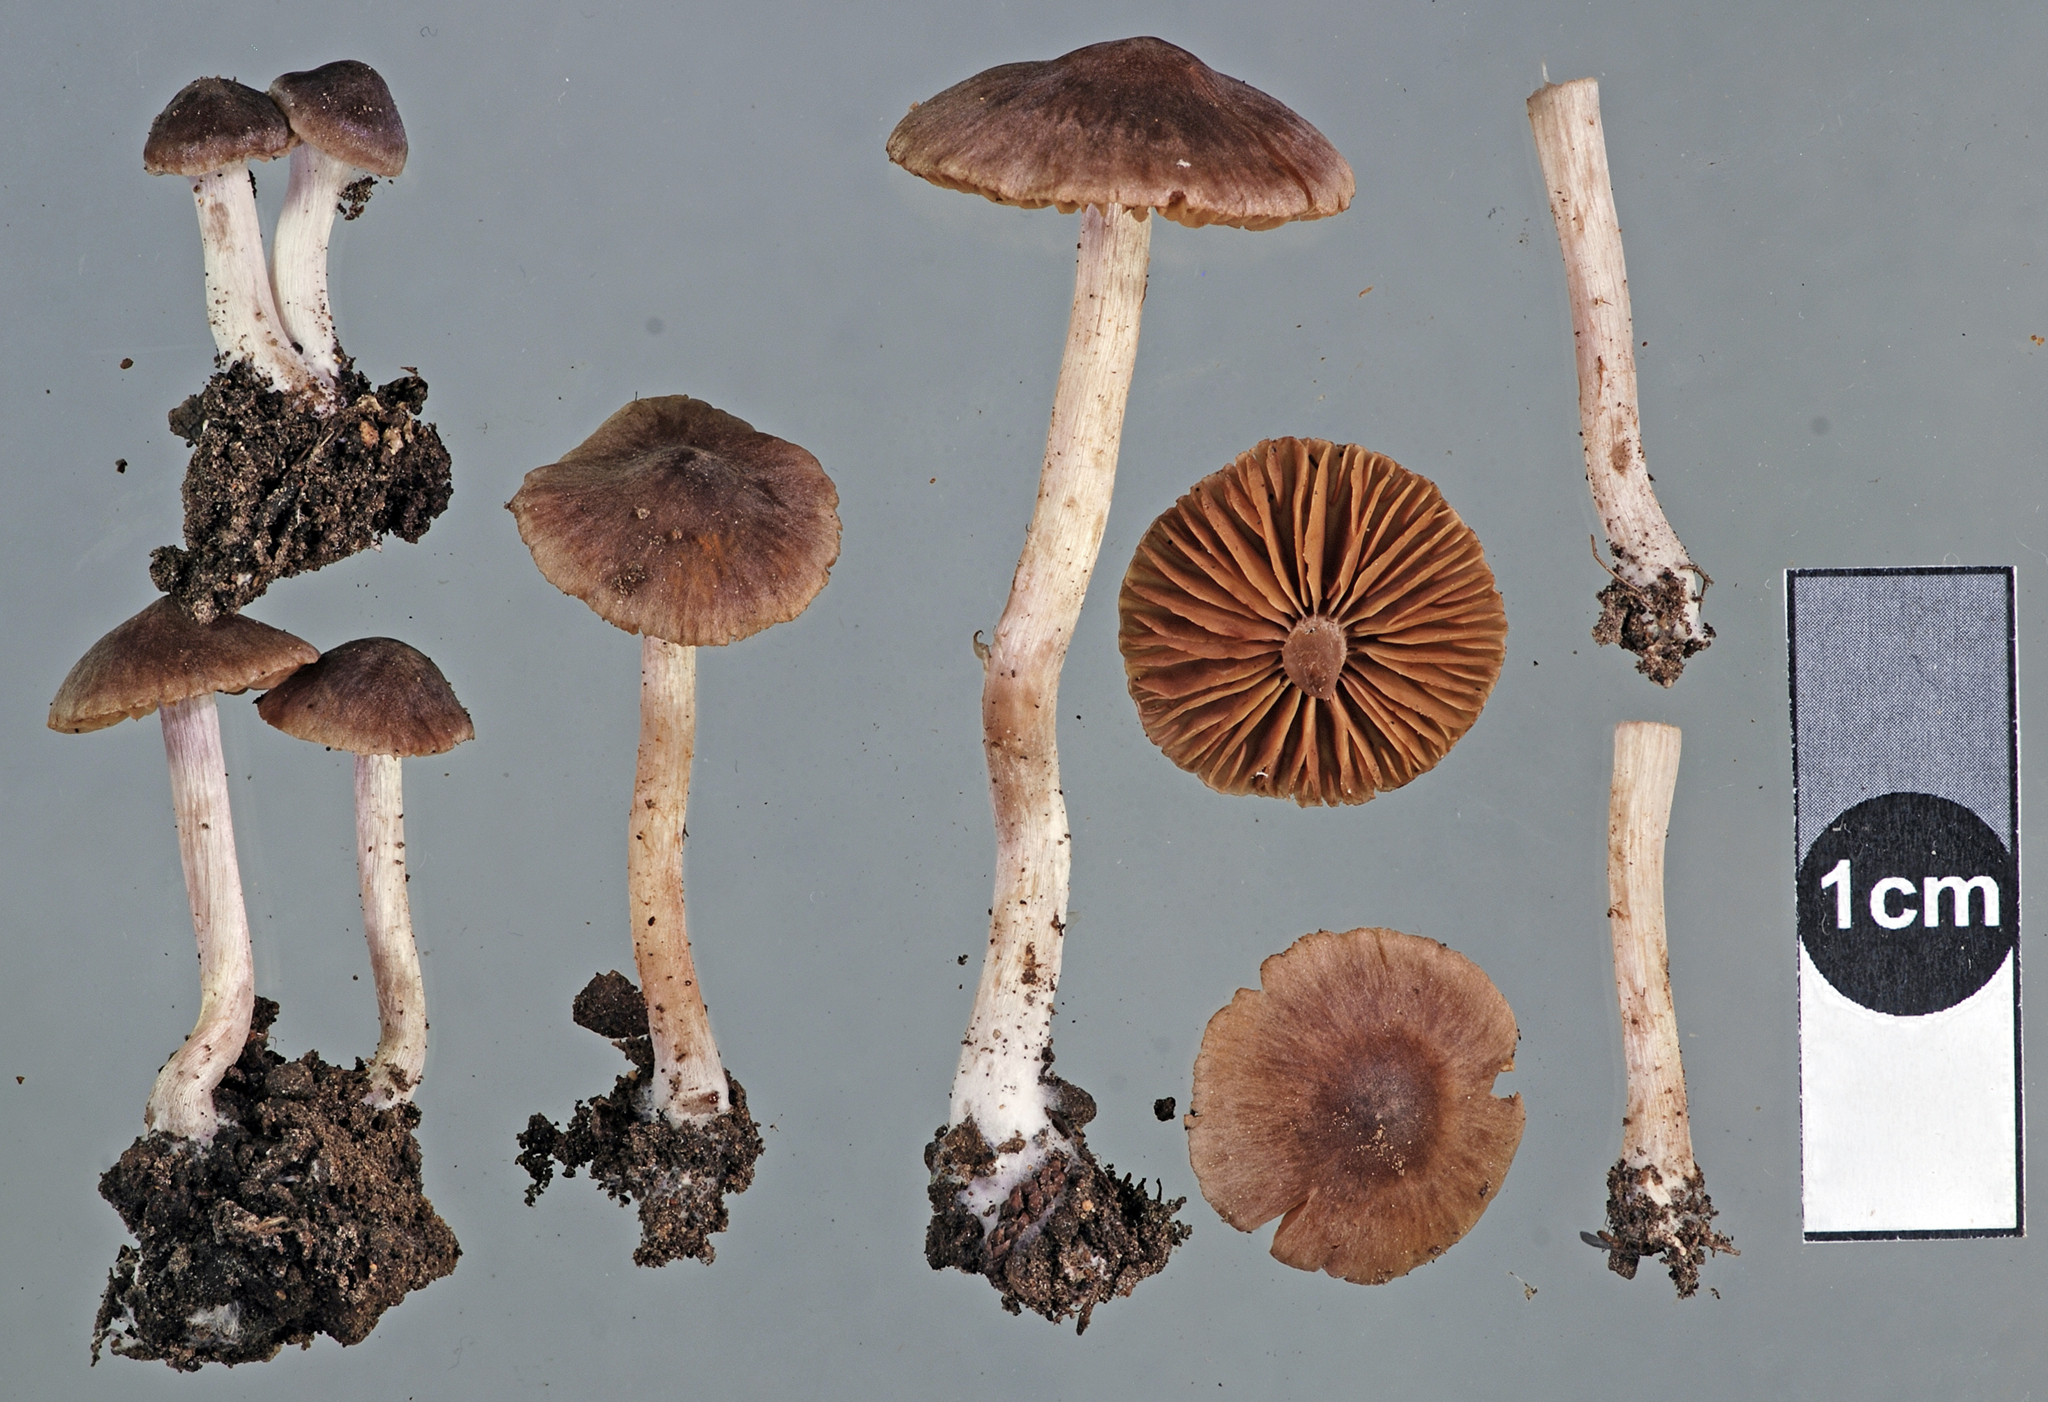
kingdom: Fungi
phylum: Basidiomycota
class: Agaricomycetes
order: Agaricales
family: Cortinariaceae
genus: Cortinarius
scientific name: Cortinarius saturninus
